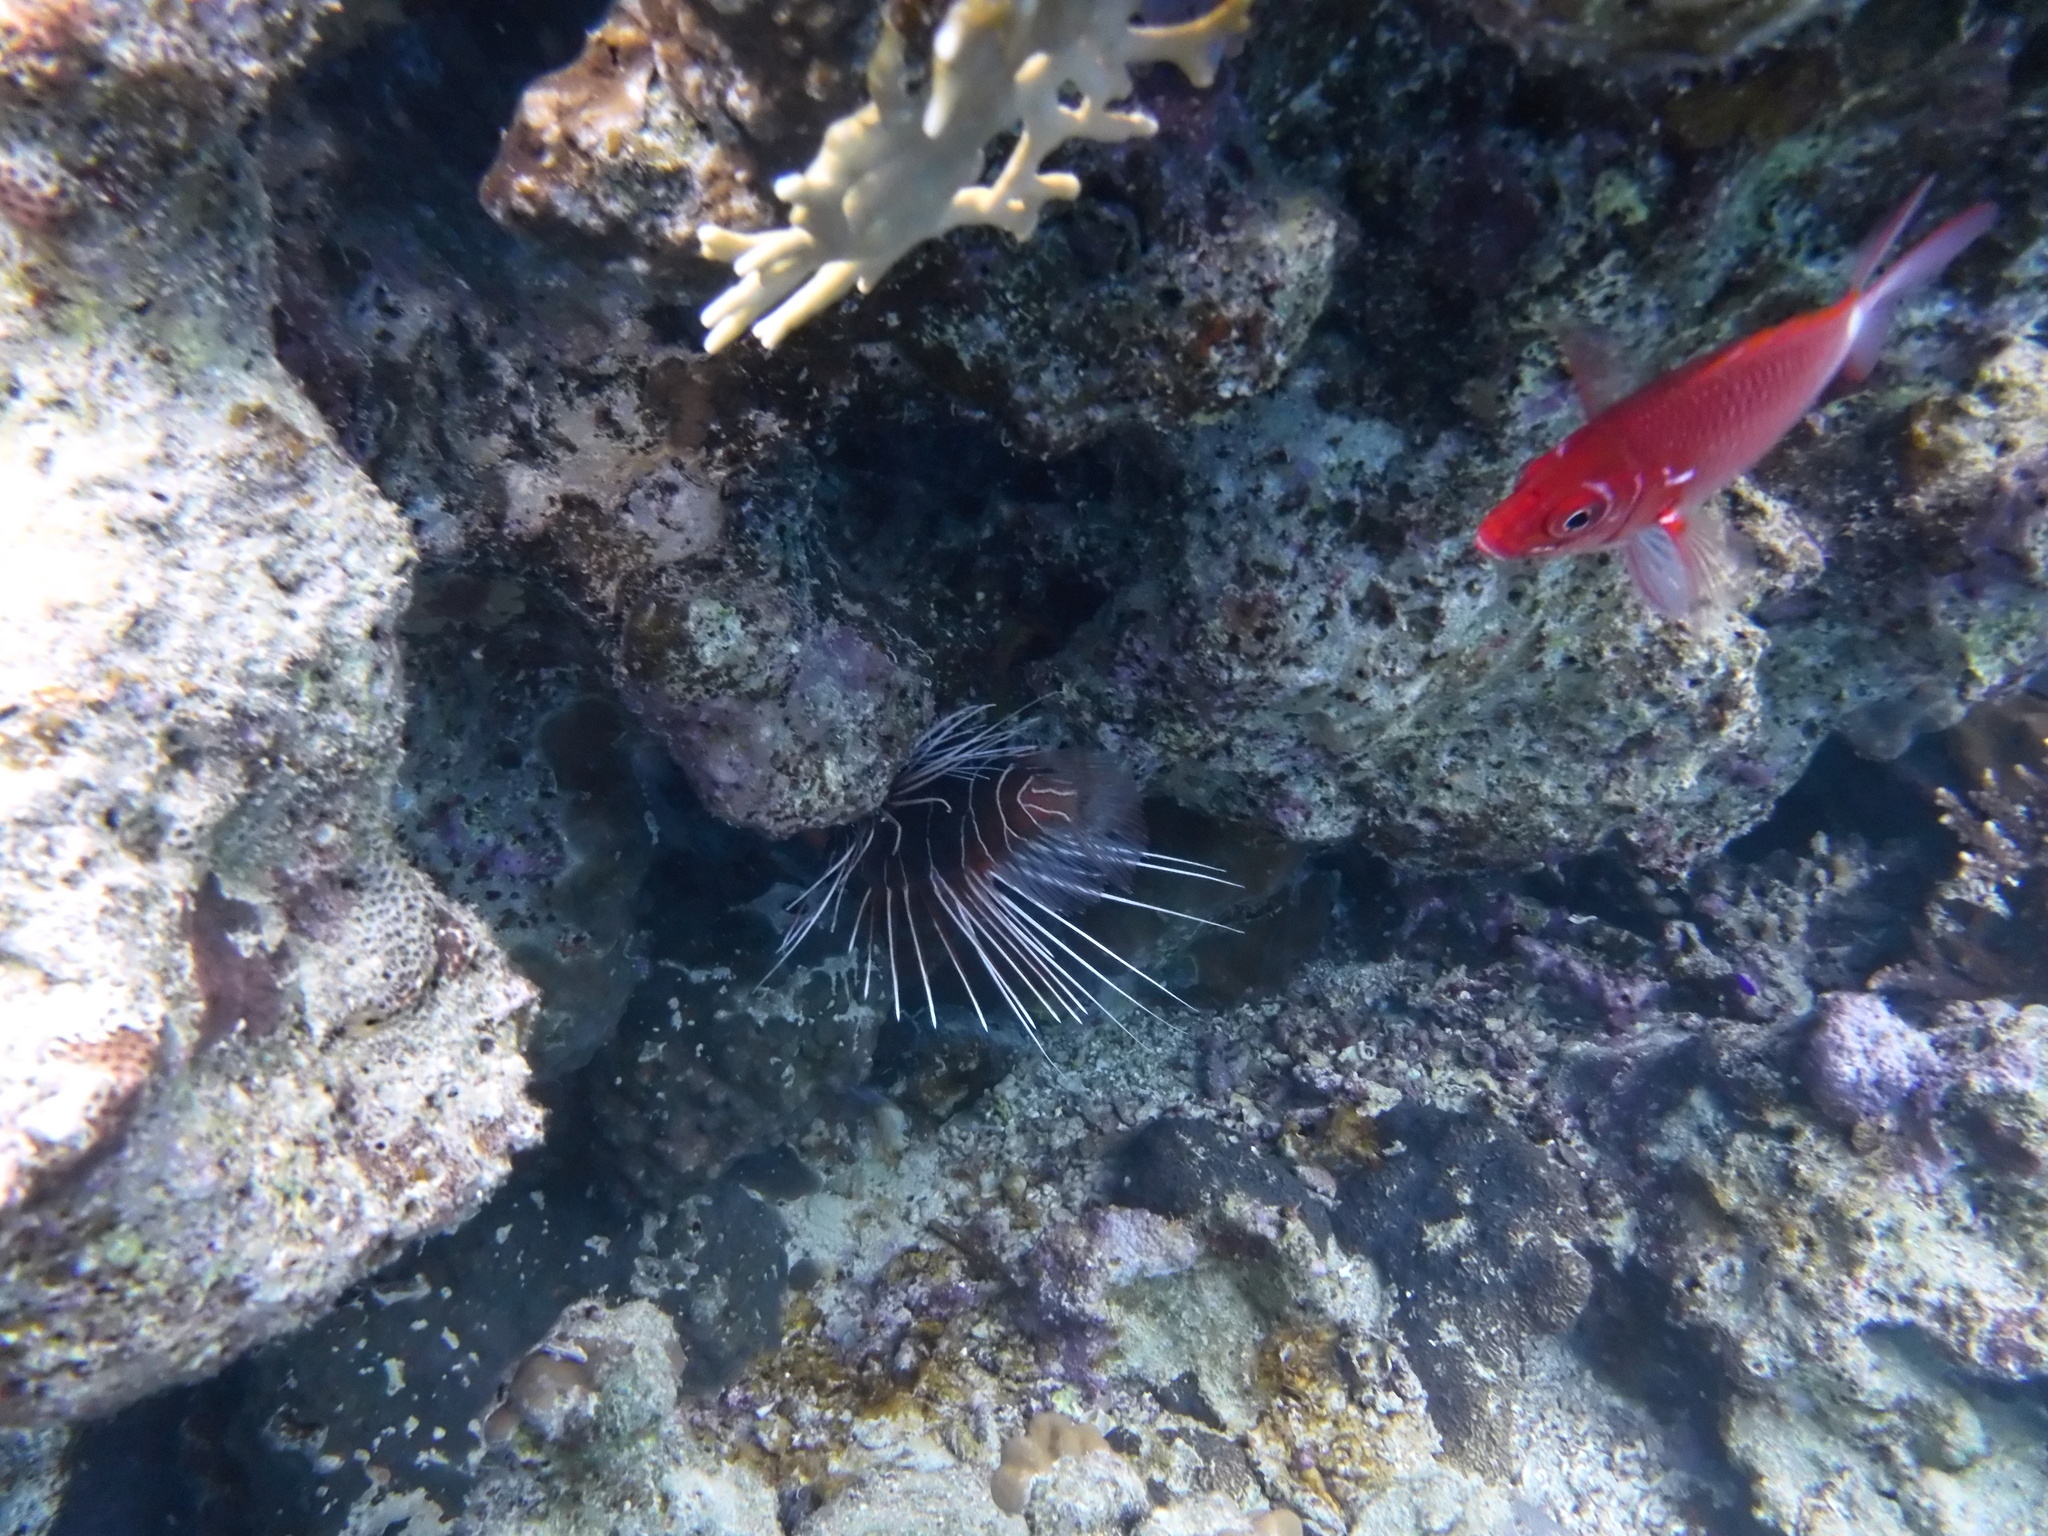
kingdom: Animalia
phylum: Chordata
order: Scorpaeniformes
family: Scorpaenidae
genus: Pterois
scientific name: Pterois cincta
